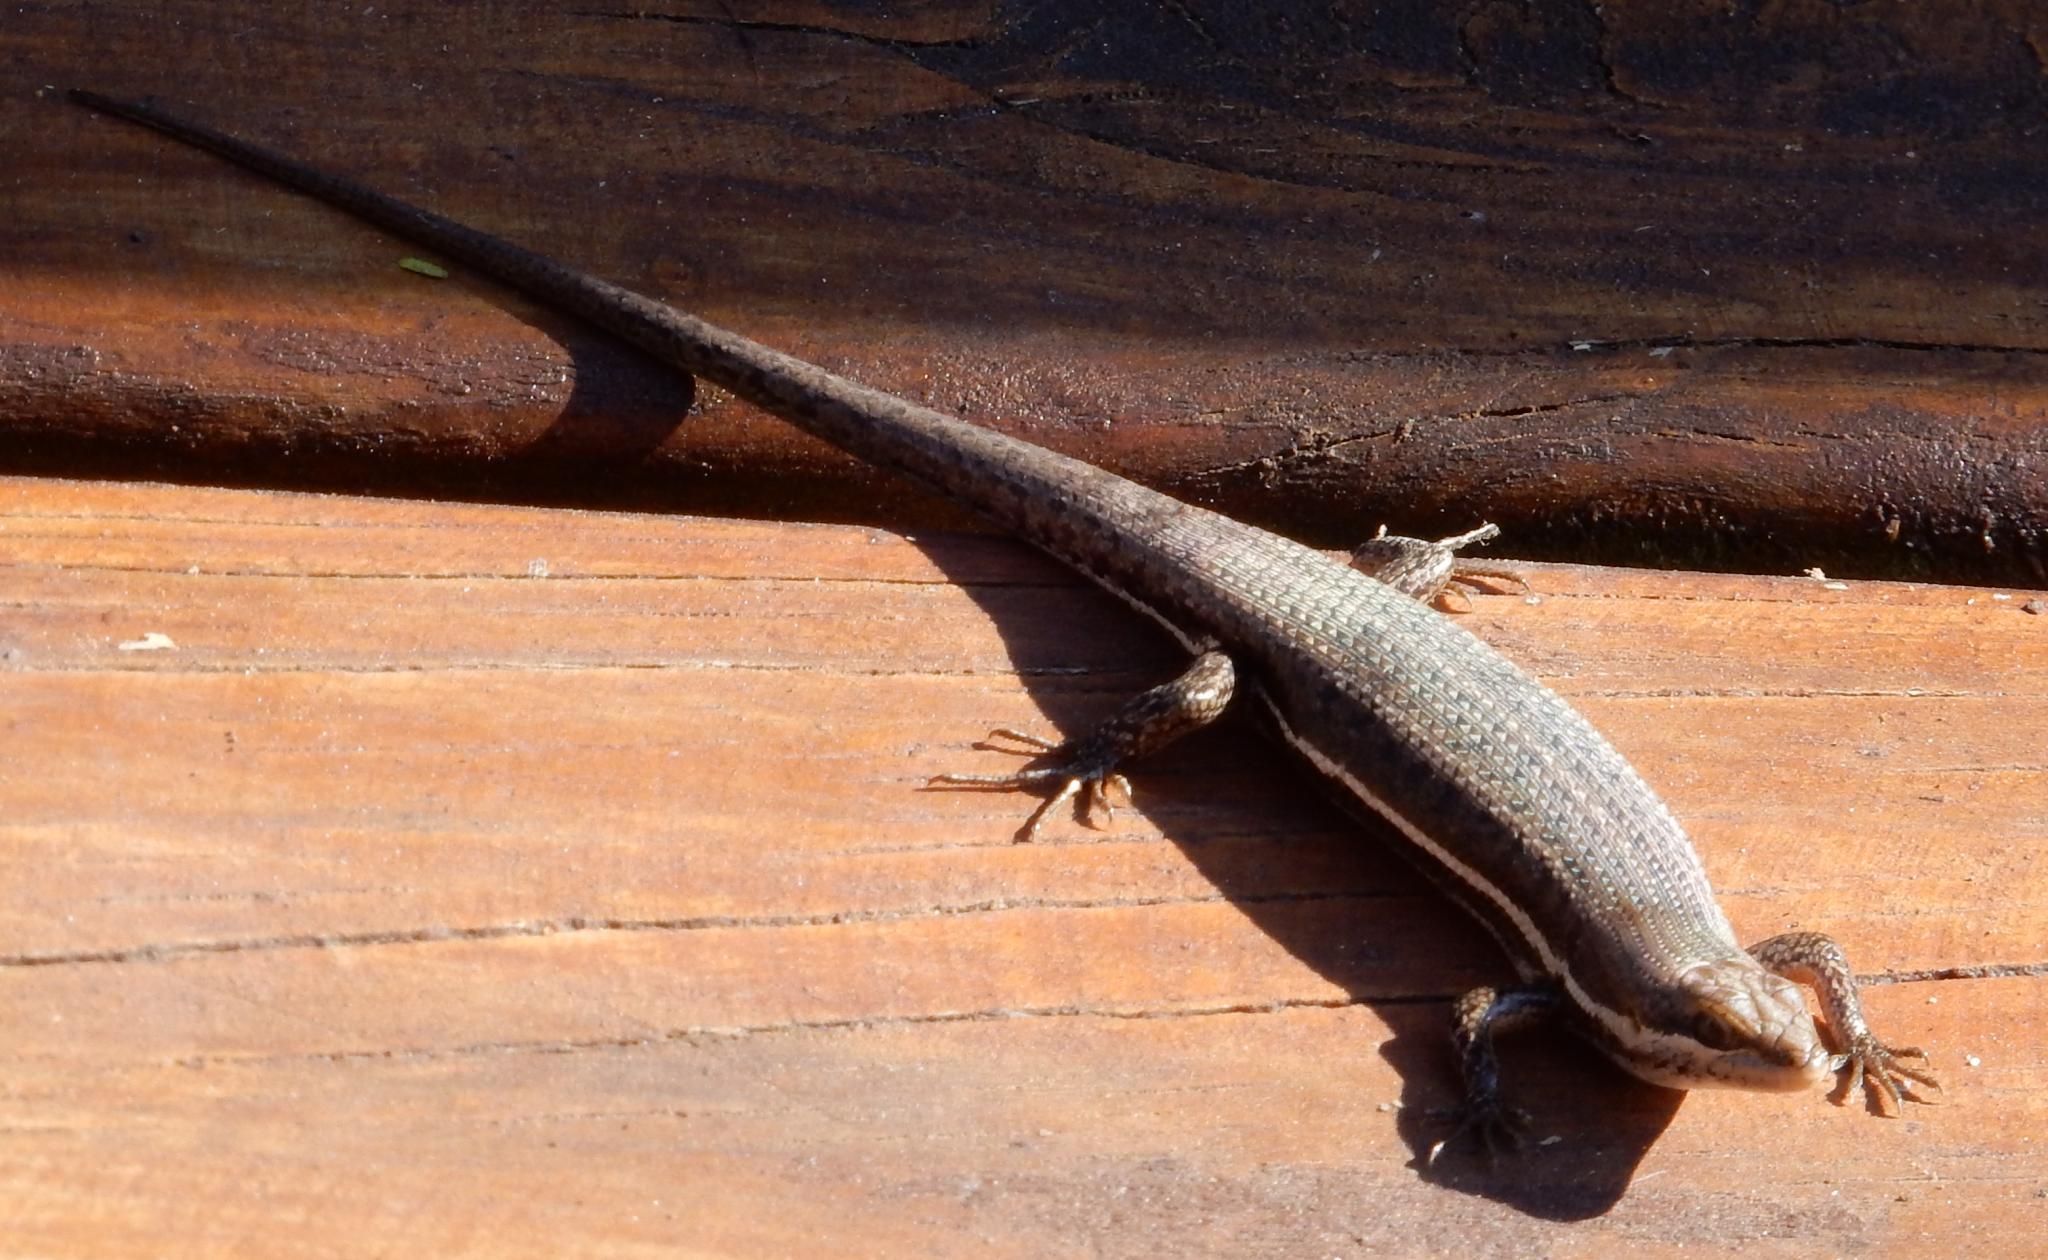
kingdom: Animalia
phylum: Chordata
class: Squamata
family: Scincidae
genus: Trachylepis
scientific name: Trachylepis varia
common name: Eastern variable skink
